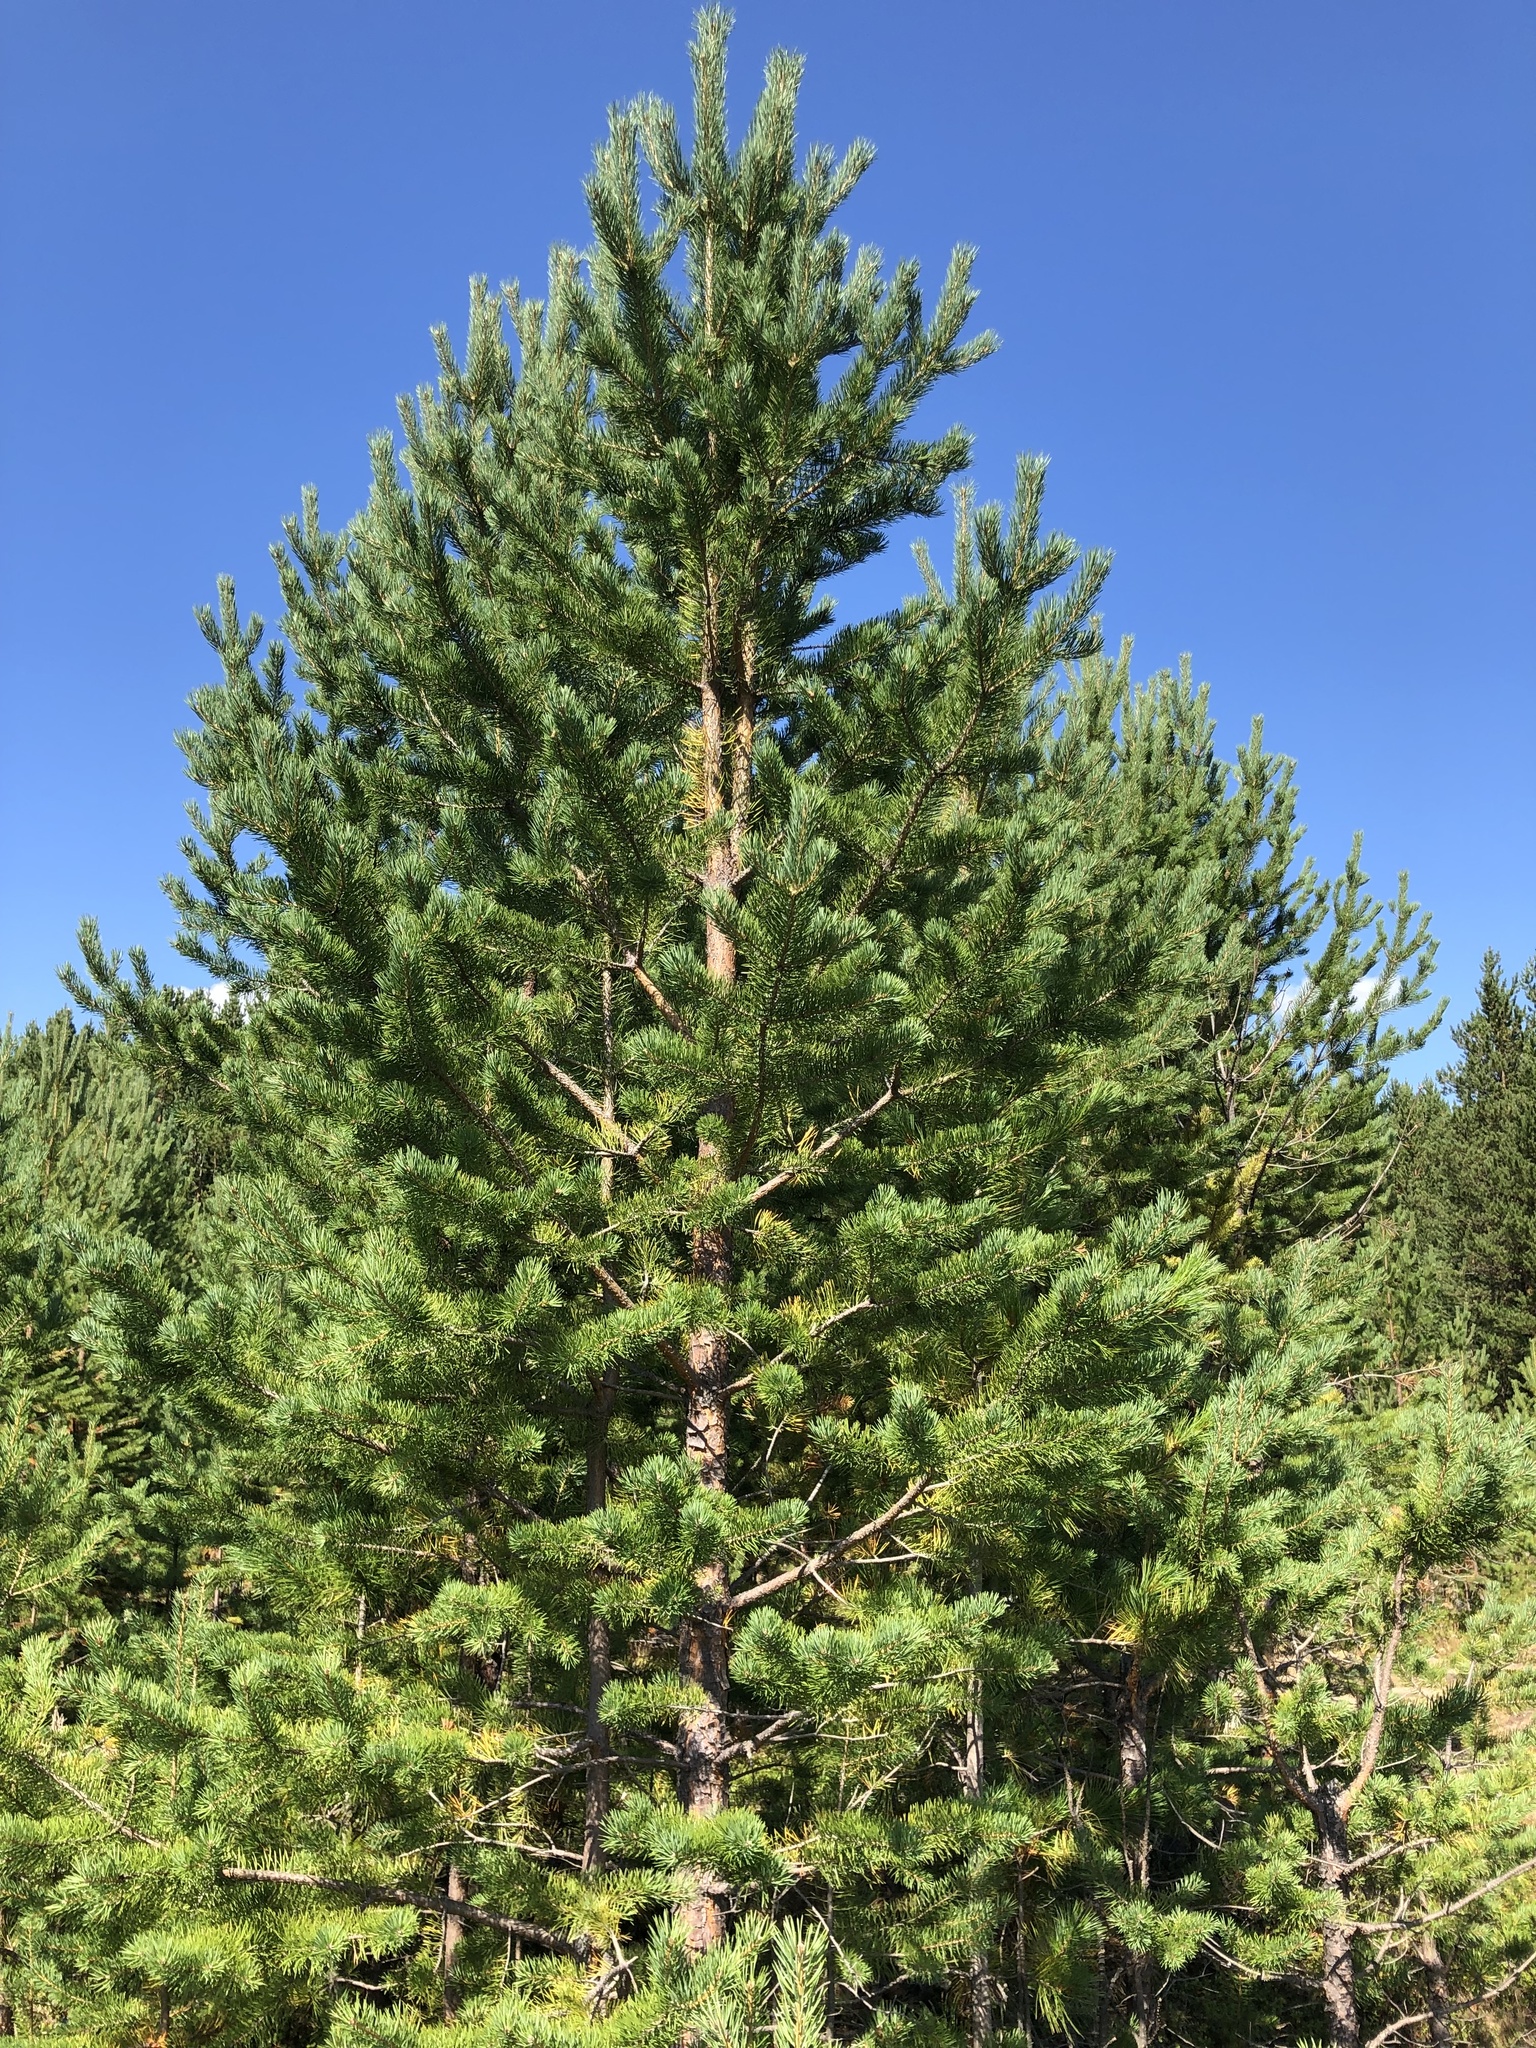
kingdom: Plantae
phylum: Tracheophyta
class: Pinopsida
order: Pinales
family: Pinaceae
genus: Pinus
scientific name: Pinus sylvestris
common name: Scots pine
